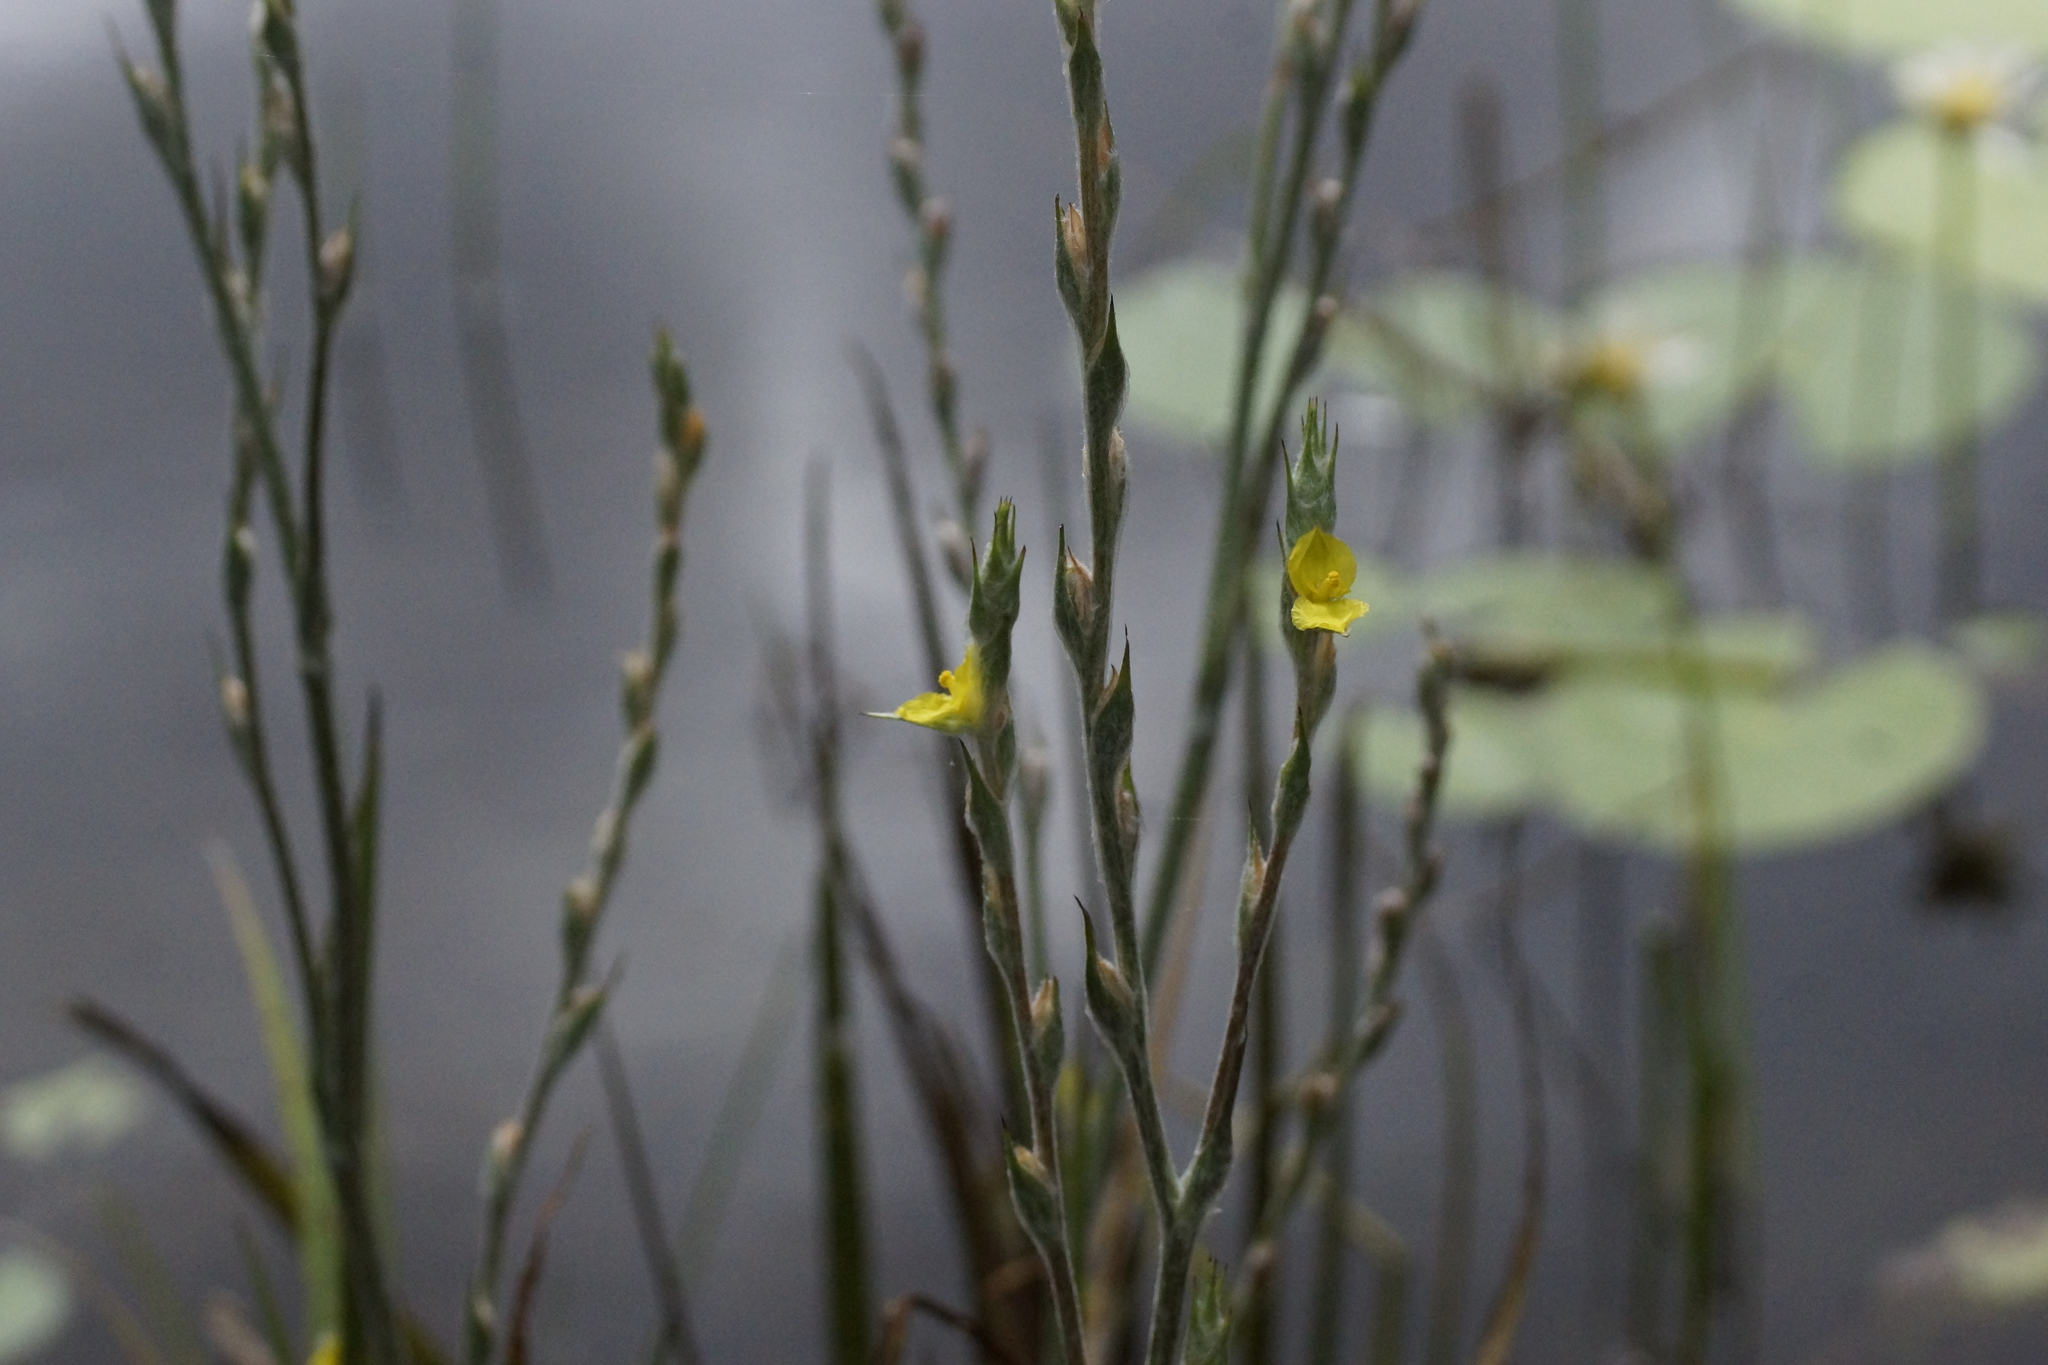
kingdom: Plantae
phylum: Tracheophyta
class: Liliopsida
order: Commelinales
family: Philydraceae
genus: Philydrum
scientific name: Philydrum lanuginosum
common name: Woolly frog's mouth
